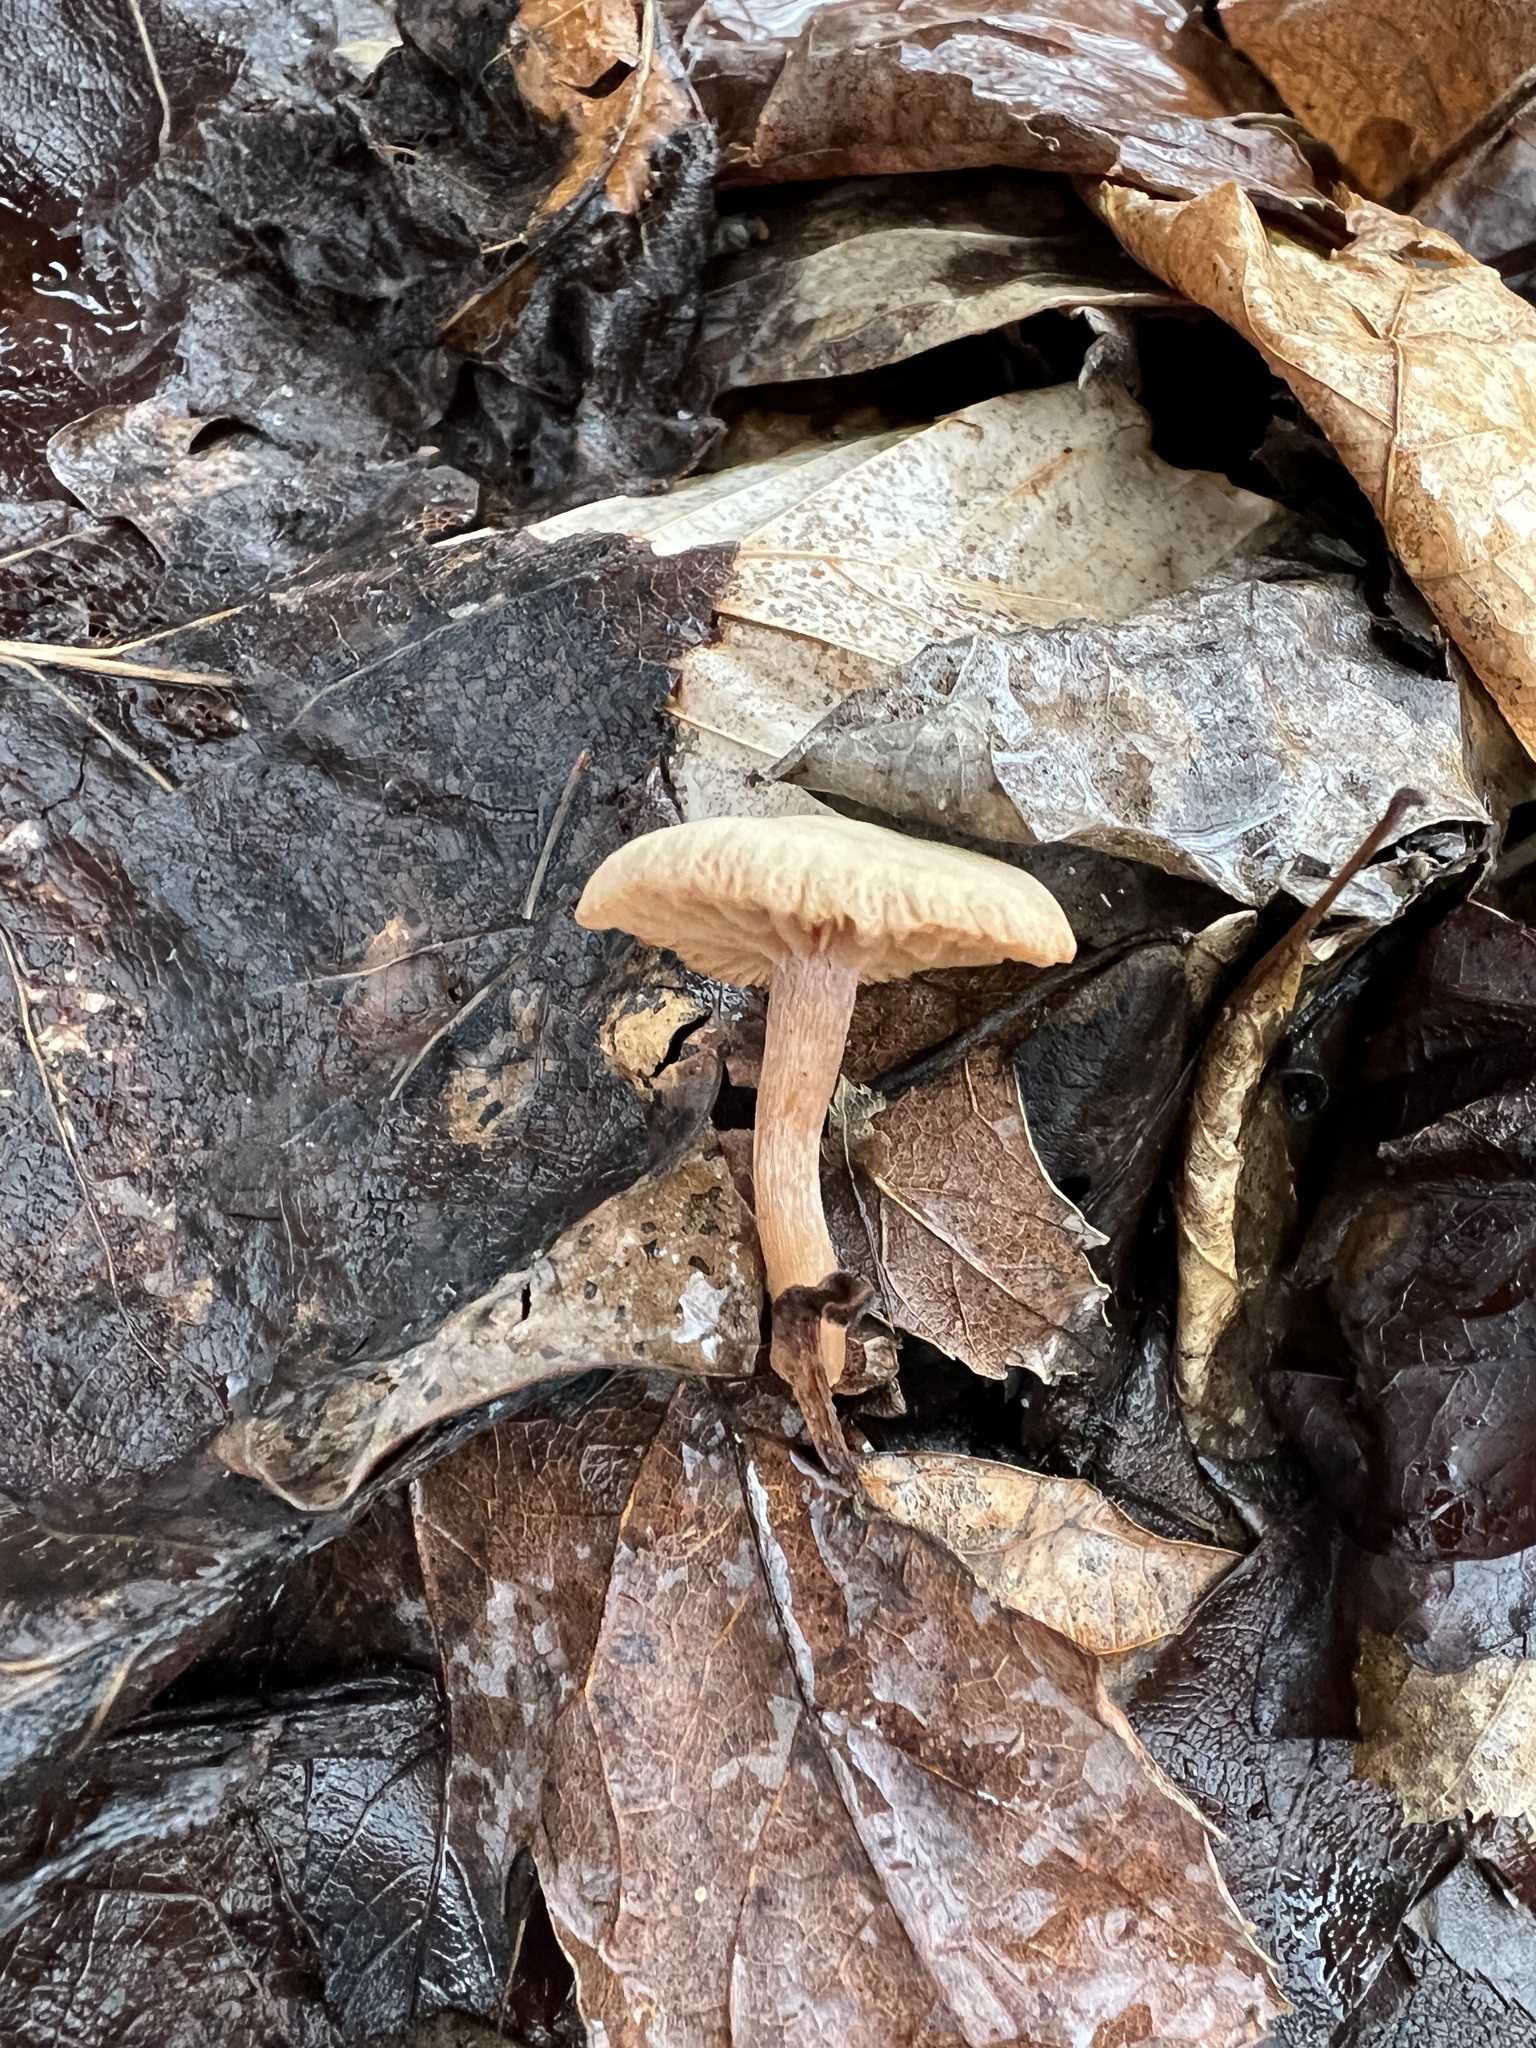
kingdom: Fungi
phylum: Basidiomycota
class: Agaricomycetes
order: Agaricales
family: Hydnangiaceae
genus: Laccaria
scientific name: Laccaria laccata
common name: Deceiver
